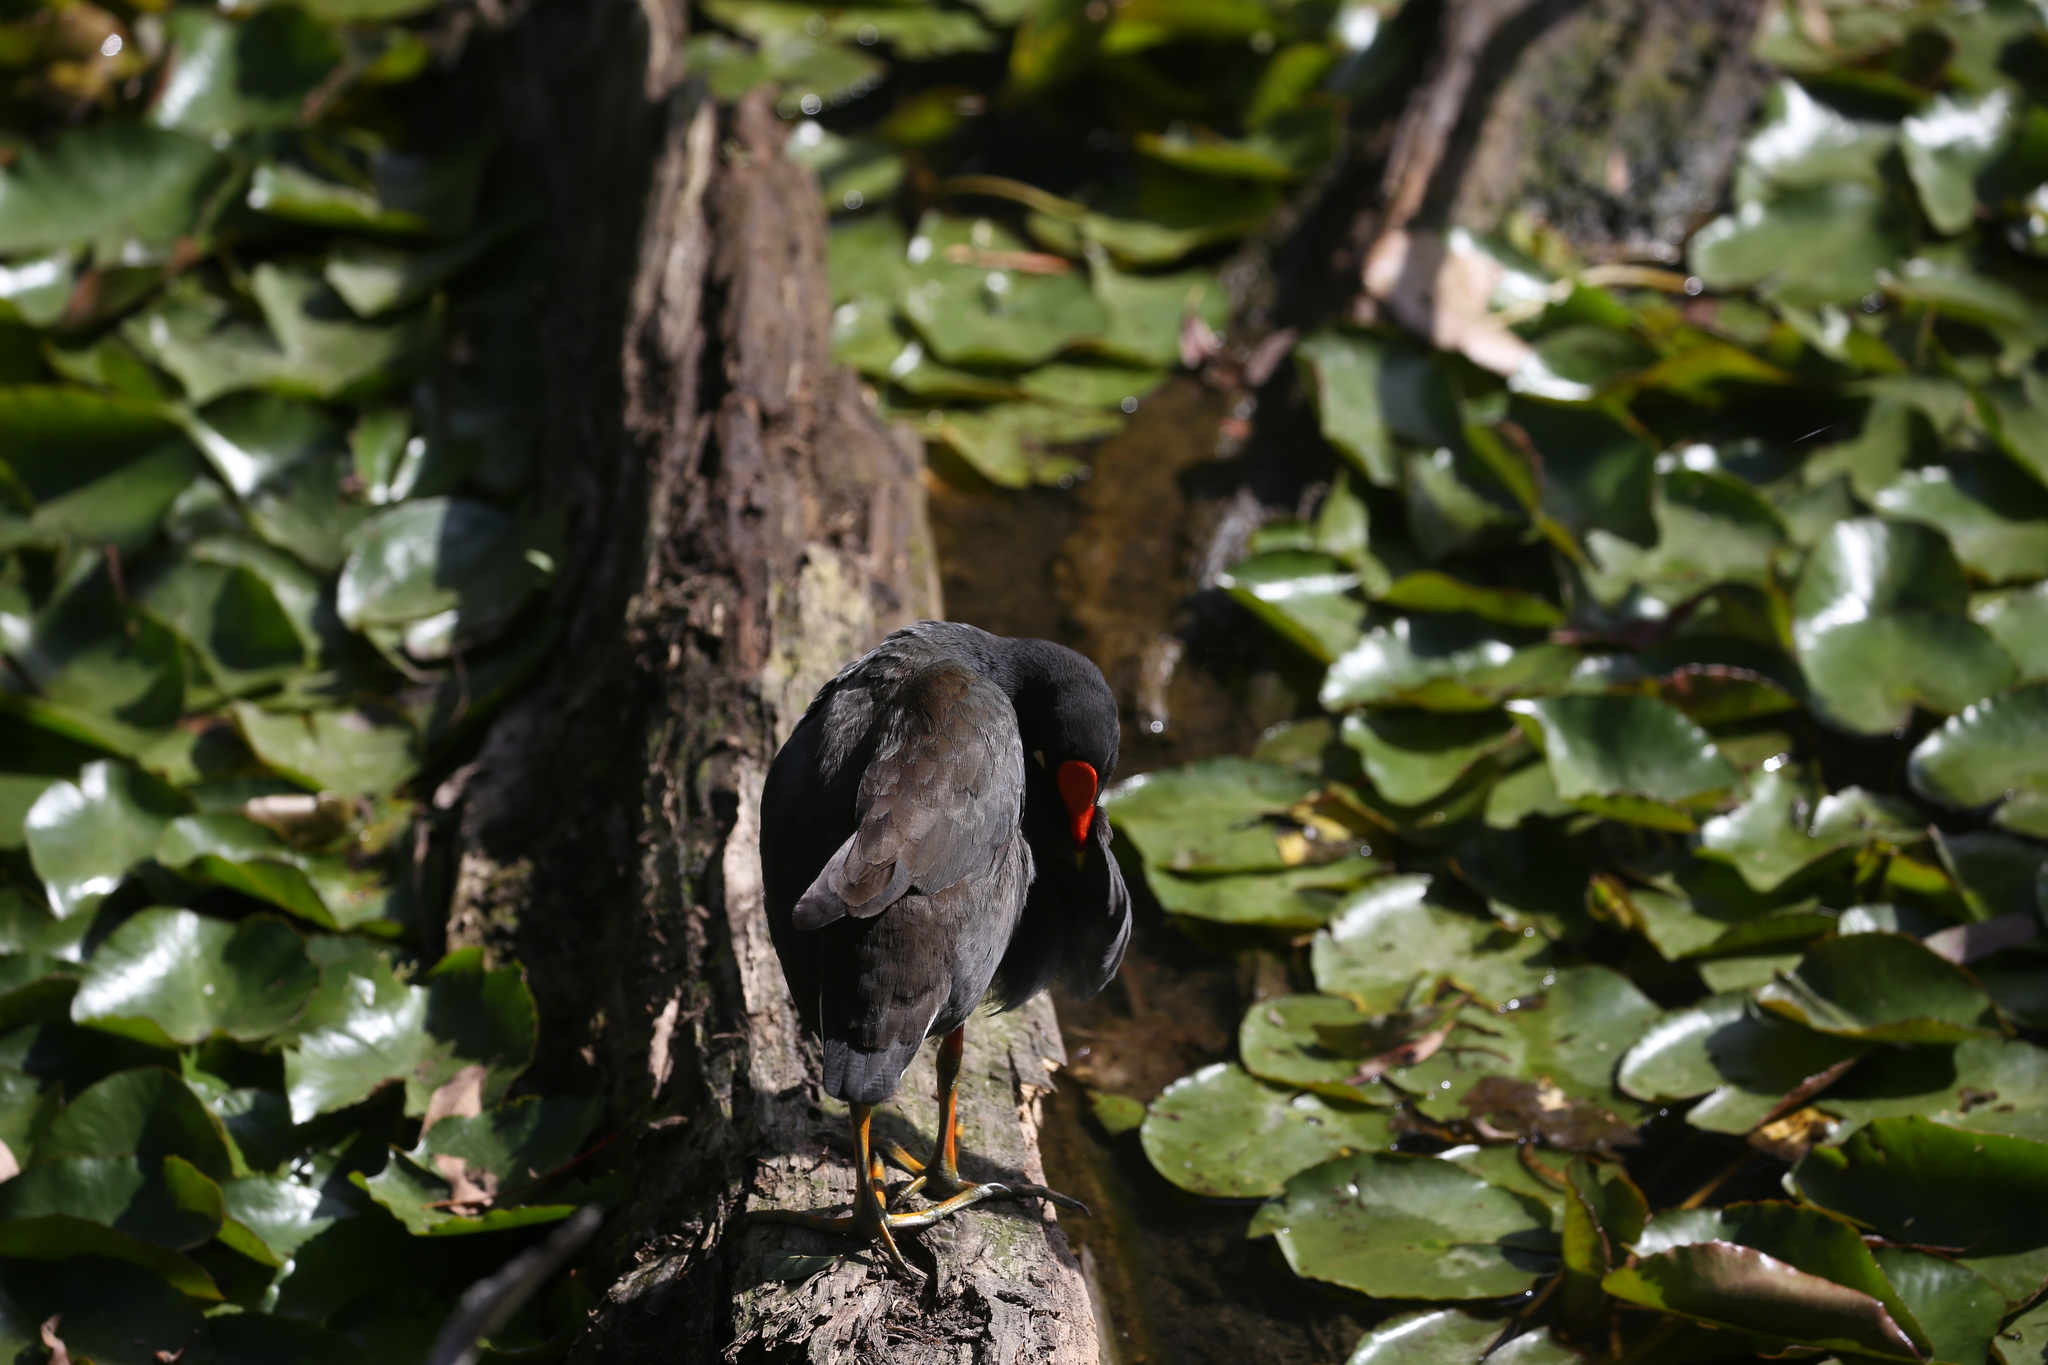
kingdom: Animalia
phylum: Chordata
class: Aves
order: Gruiformes
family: Rallidae
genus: Gallinula
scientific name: Gallinula tenebrosa
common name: Dusky moorhen
